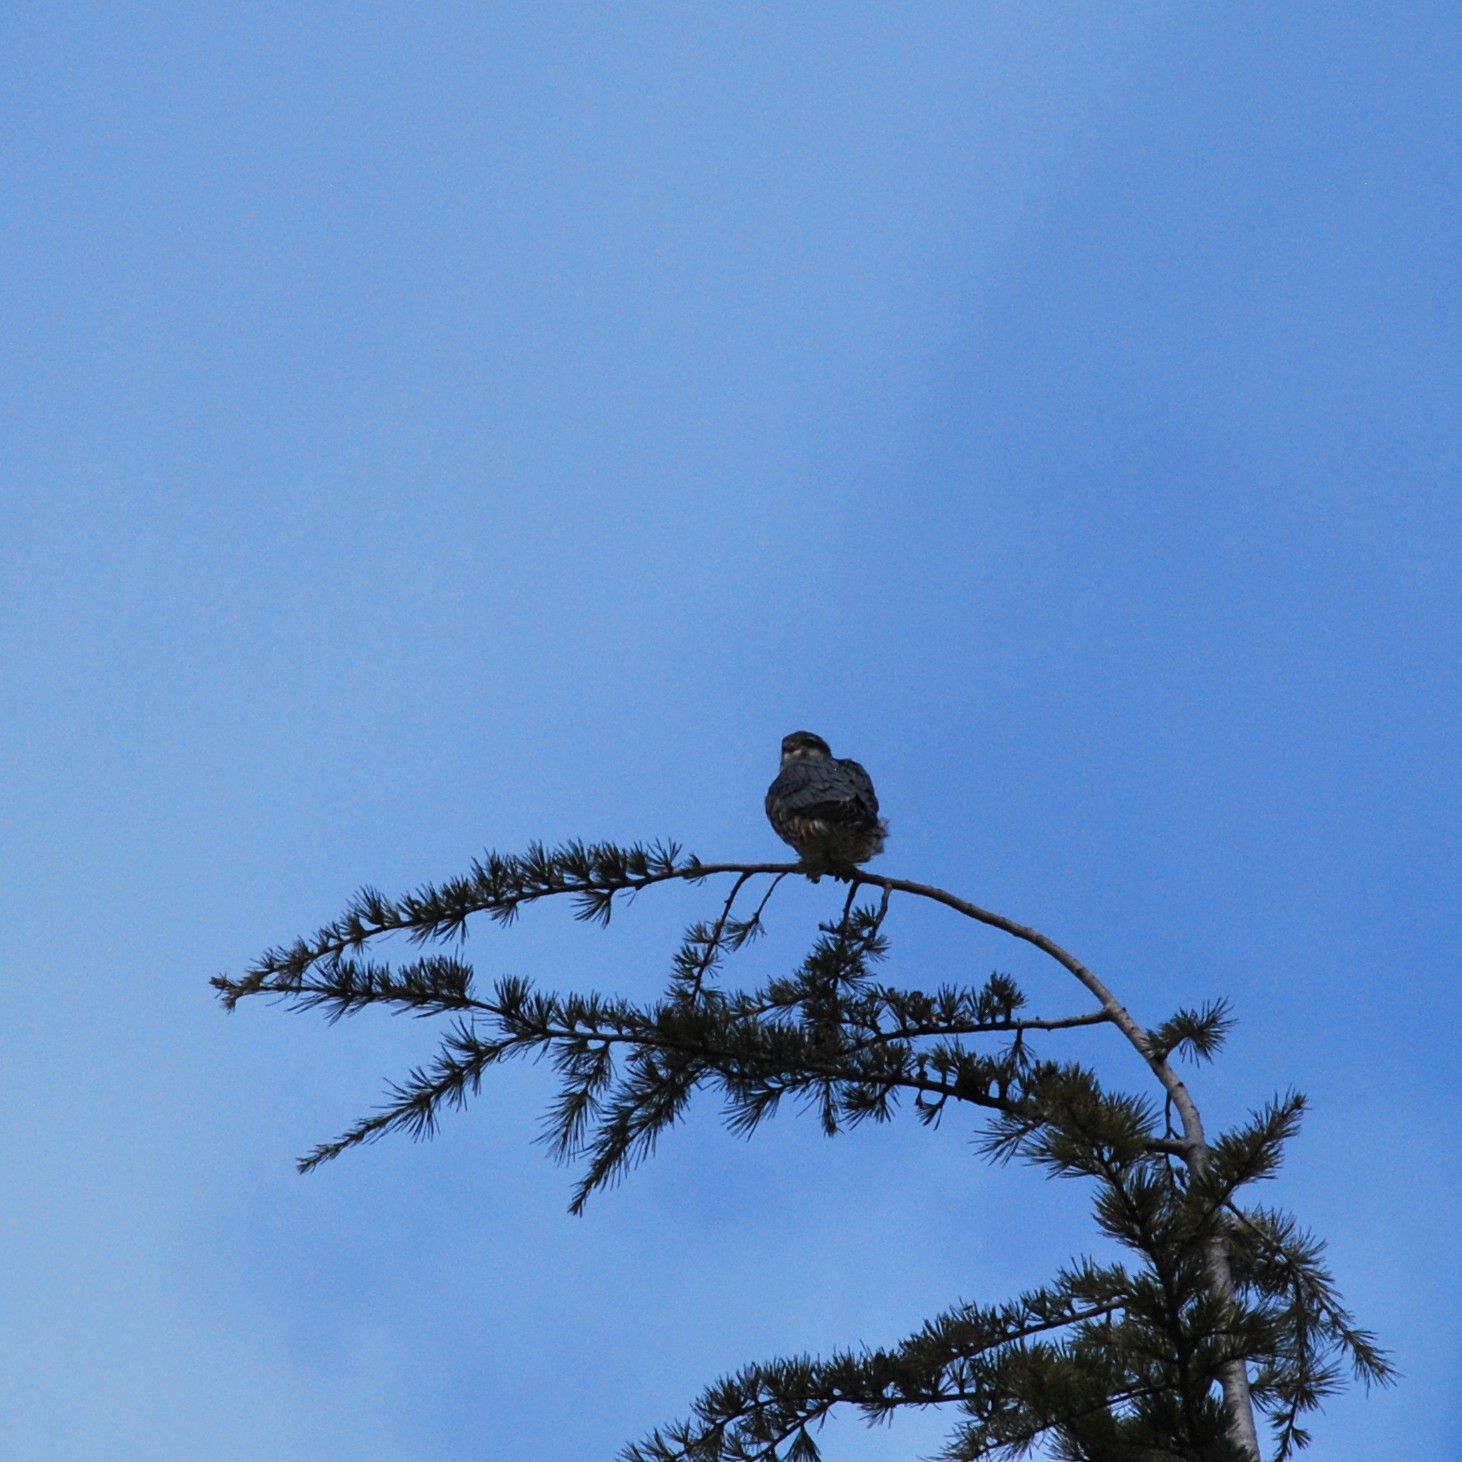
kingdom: Animalia
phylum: Chordata
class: Aves
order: Falconiformes
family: Falconidae
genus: Falco
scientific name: Falco columbarius
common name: Merlin
